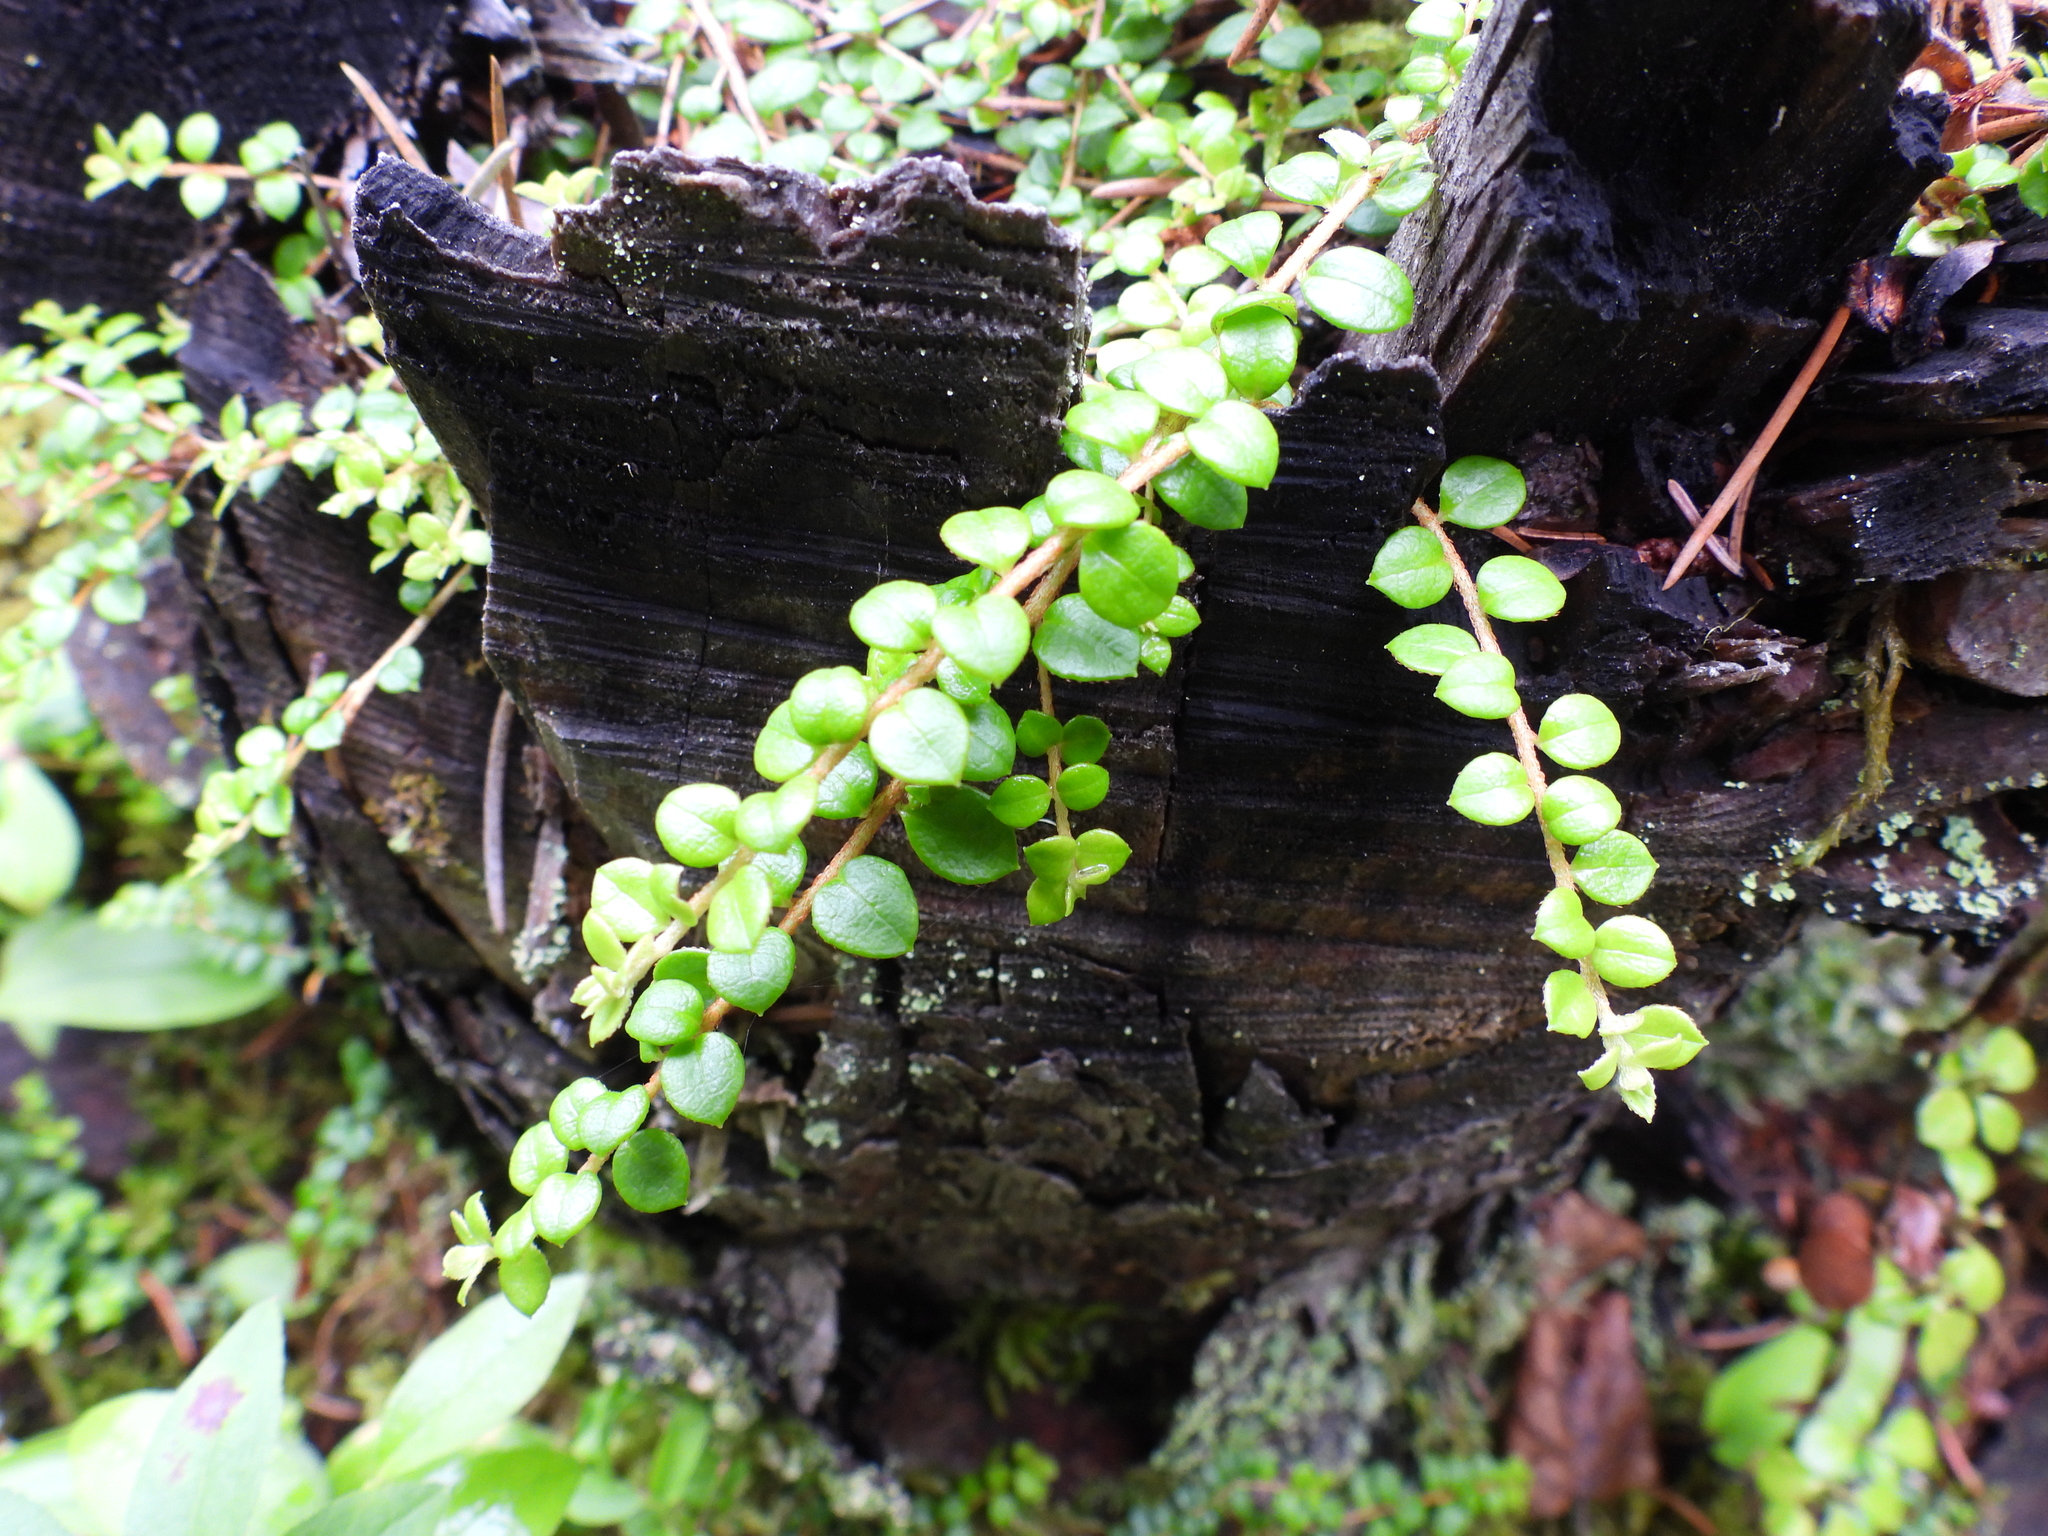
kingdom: Plantae
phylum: Tracheophyta
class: Magnoliopsida
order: Ericales
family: Ericaceae
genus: Gaultheria
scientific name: Gaultheria hispidula
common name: Cancer wintergreen
